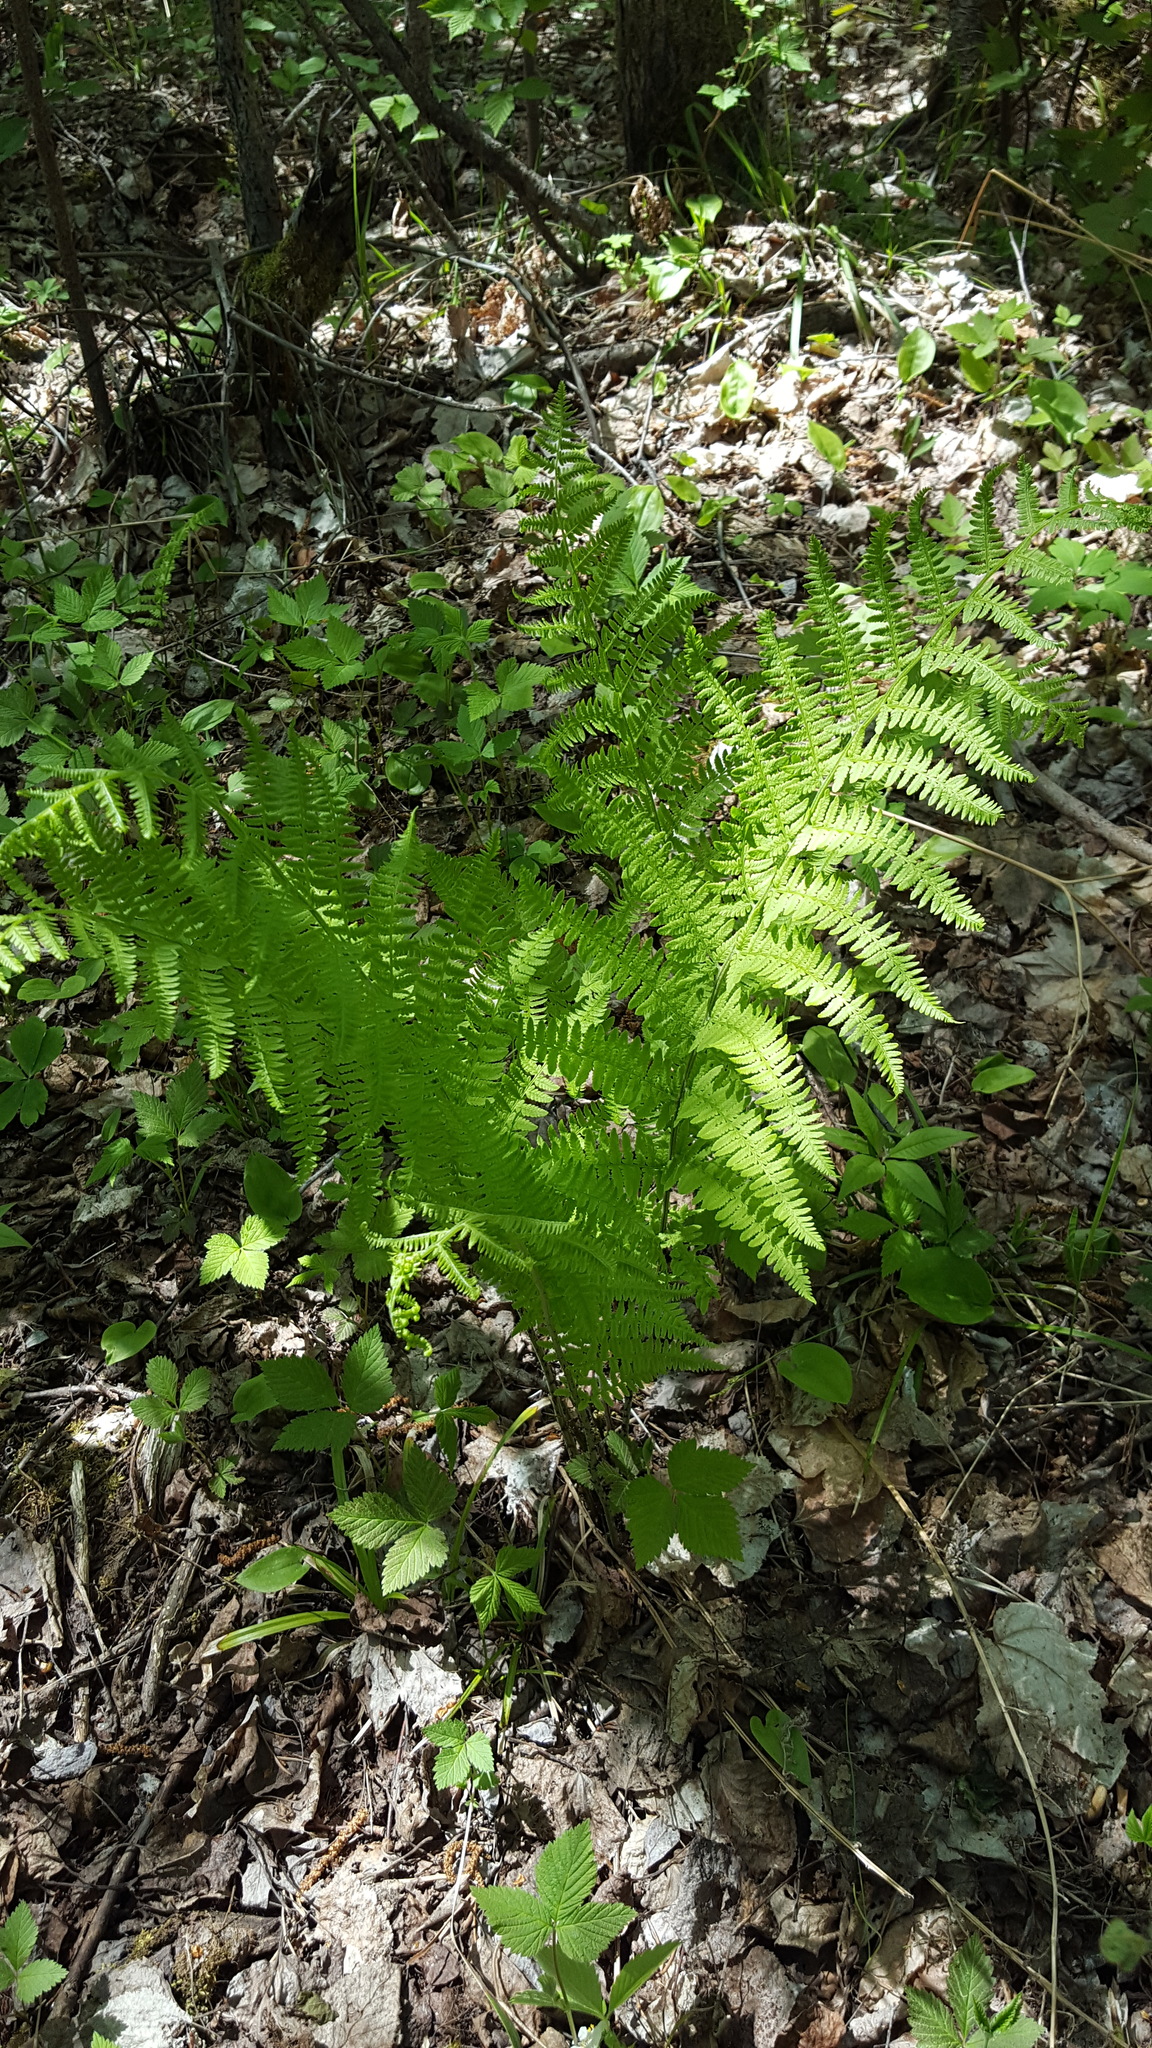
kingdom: Plantae
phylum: Tracheophyta
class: Polypodiopsida
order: Polypodiales
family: Athyriaceae
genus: Athyrium
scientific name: Athyrium angustum
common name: Northern lady fern
